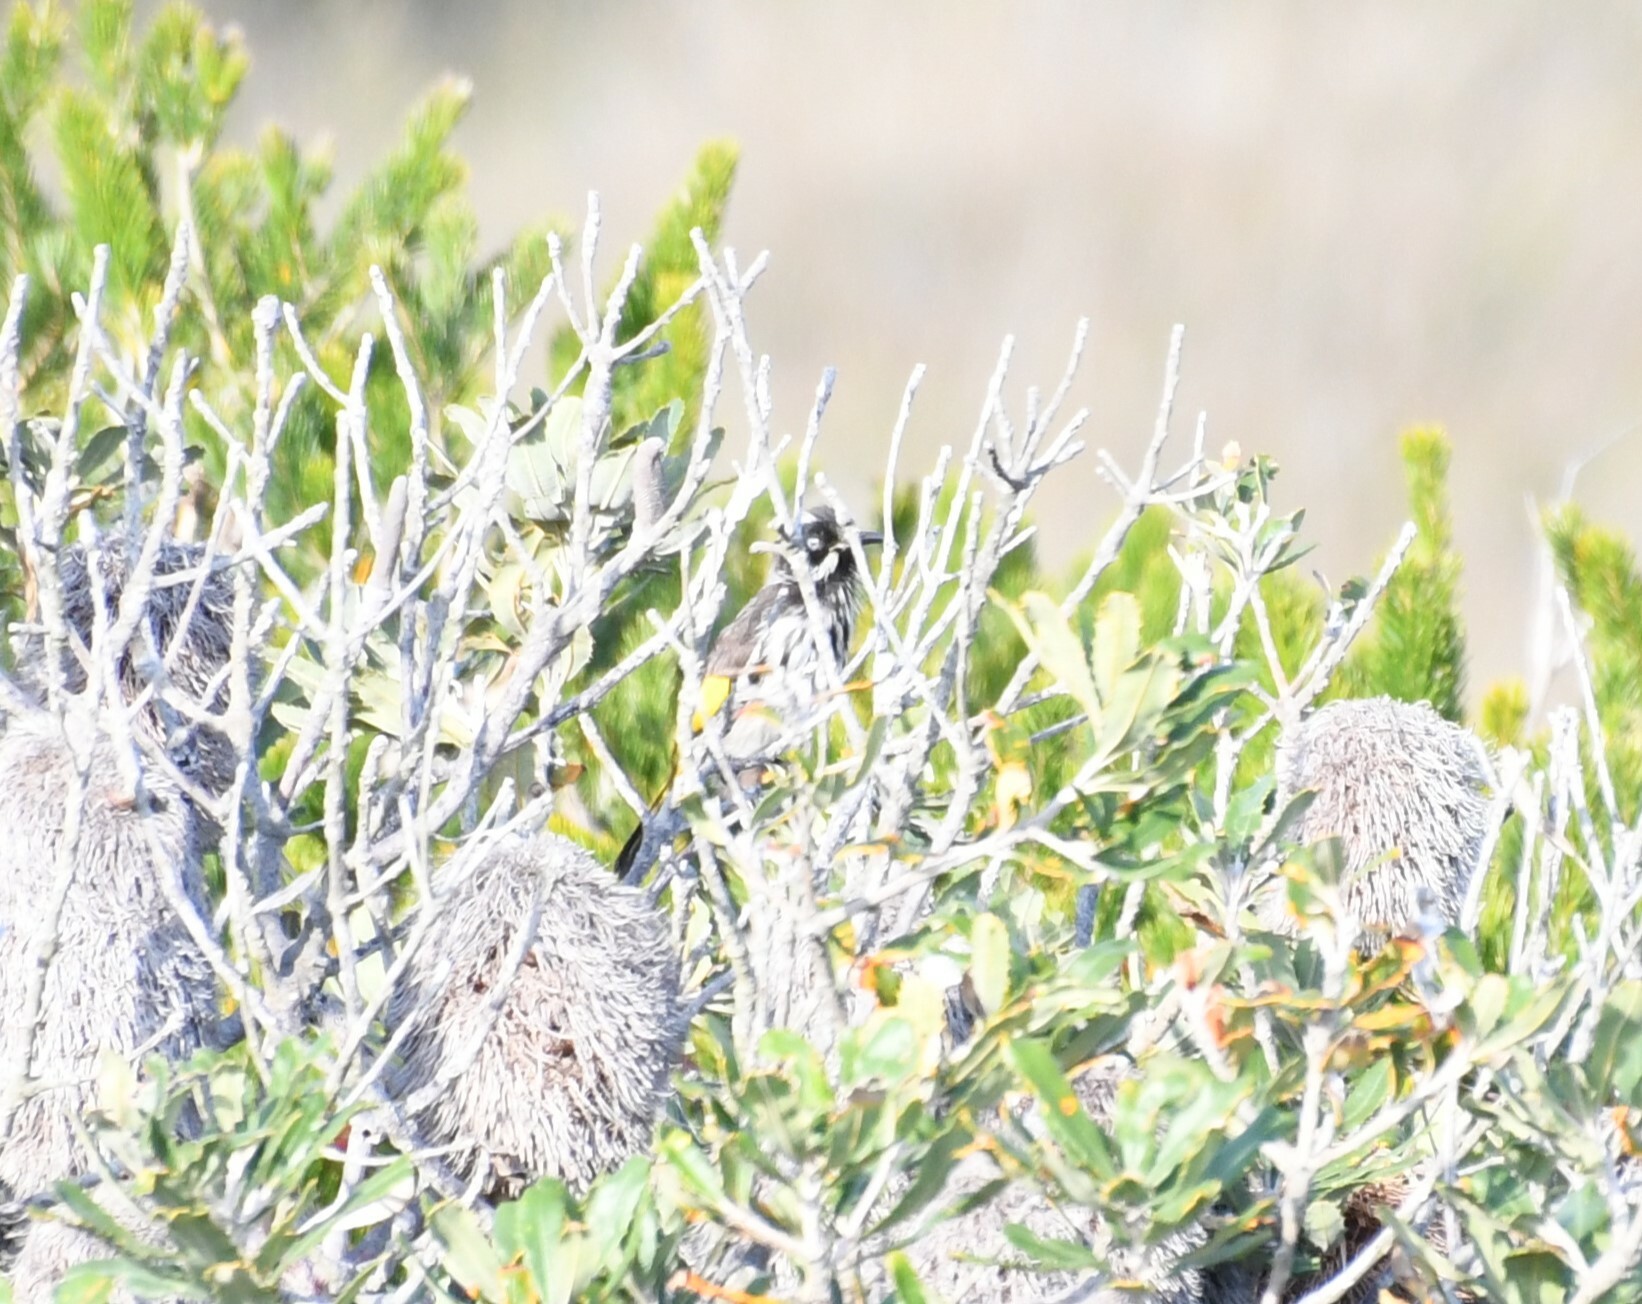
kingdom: Animalia
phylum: Chordata
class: Aves
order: Passeriformes
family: Meliphagidae
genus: Phylidonyris
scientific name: Phylidonyris novaehollandiae
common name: New holland honeyeater
